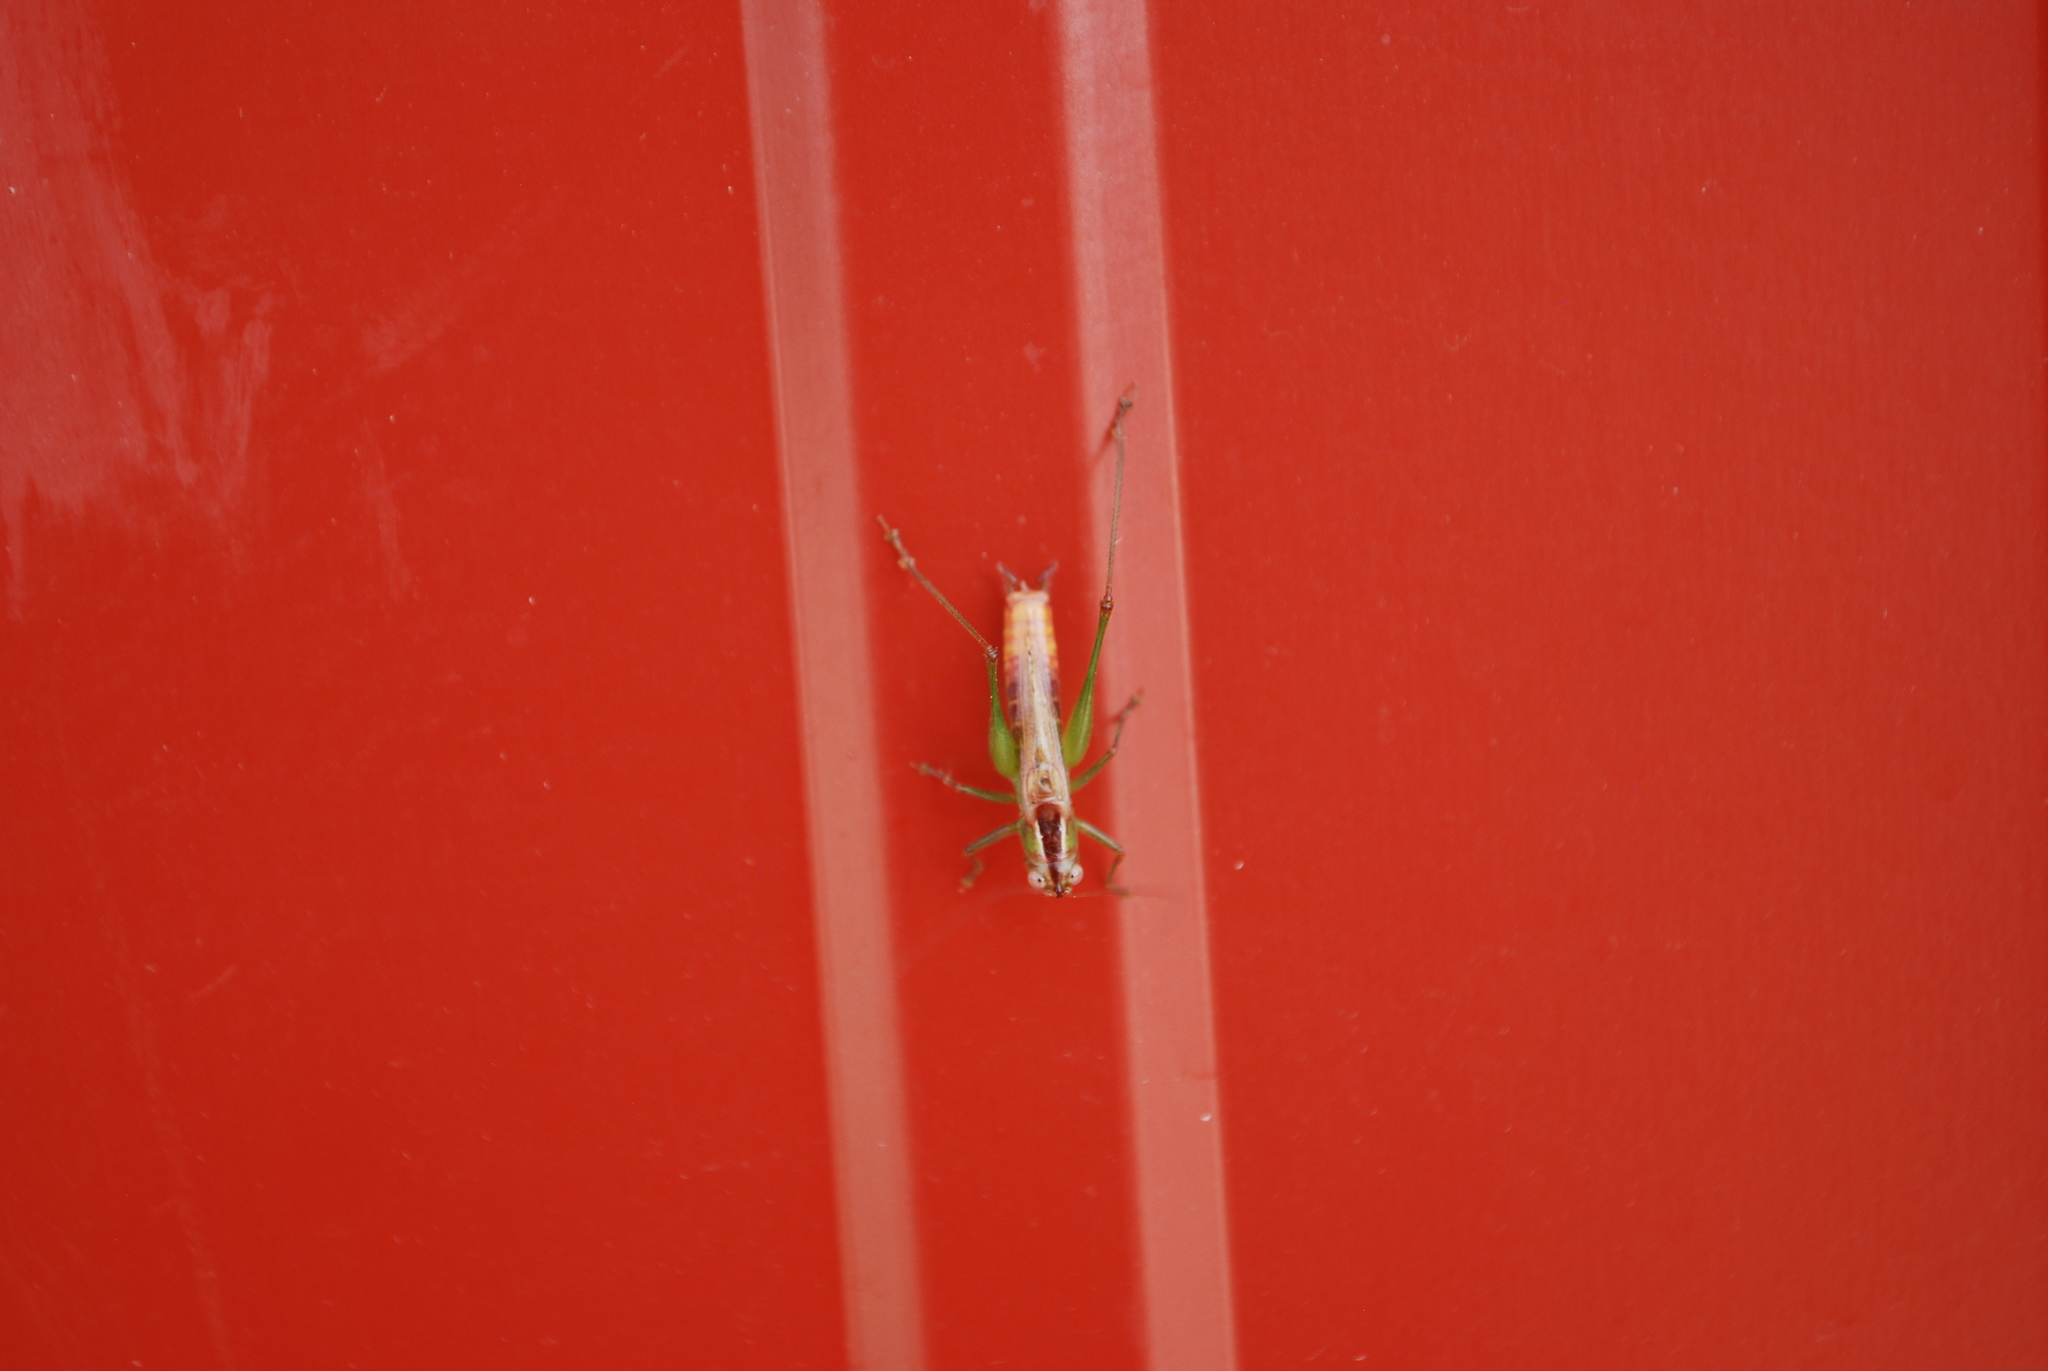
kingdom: Animalia
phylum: Arthropoda
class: Insecta
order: Orthoptera
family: Tettigoniidae
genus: Conocephalus
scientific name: Conocephalus brevipennis
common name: Short-winged meadow katydid
